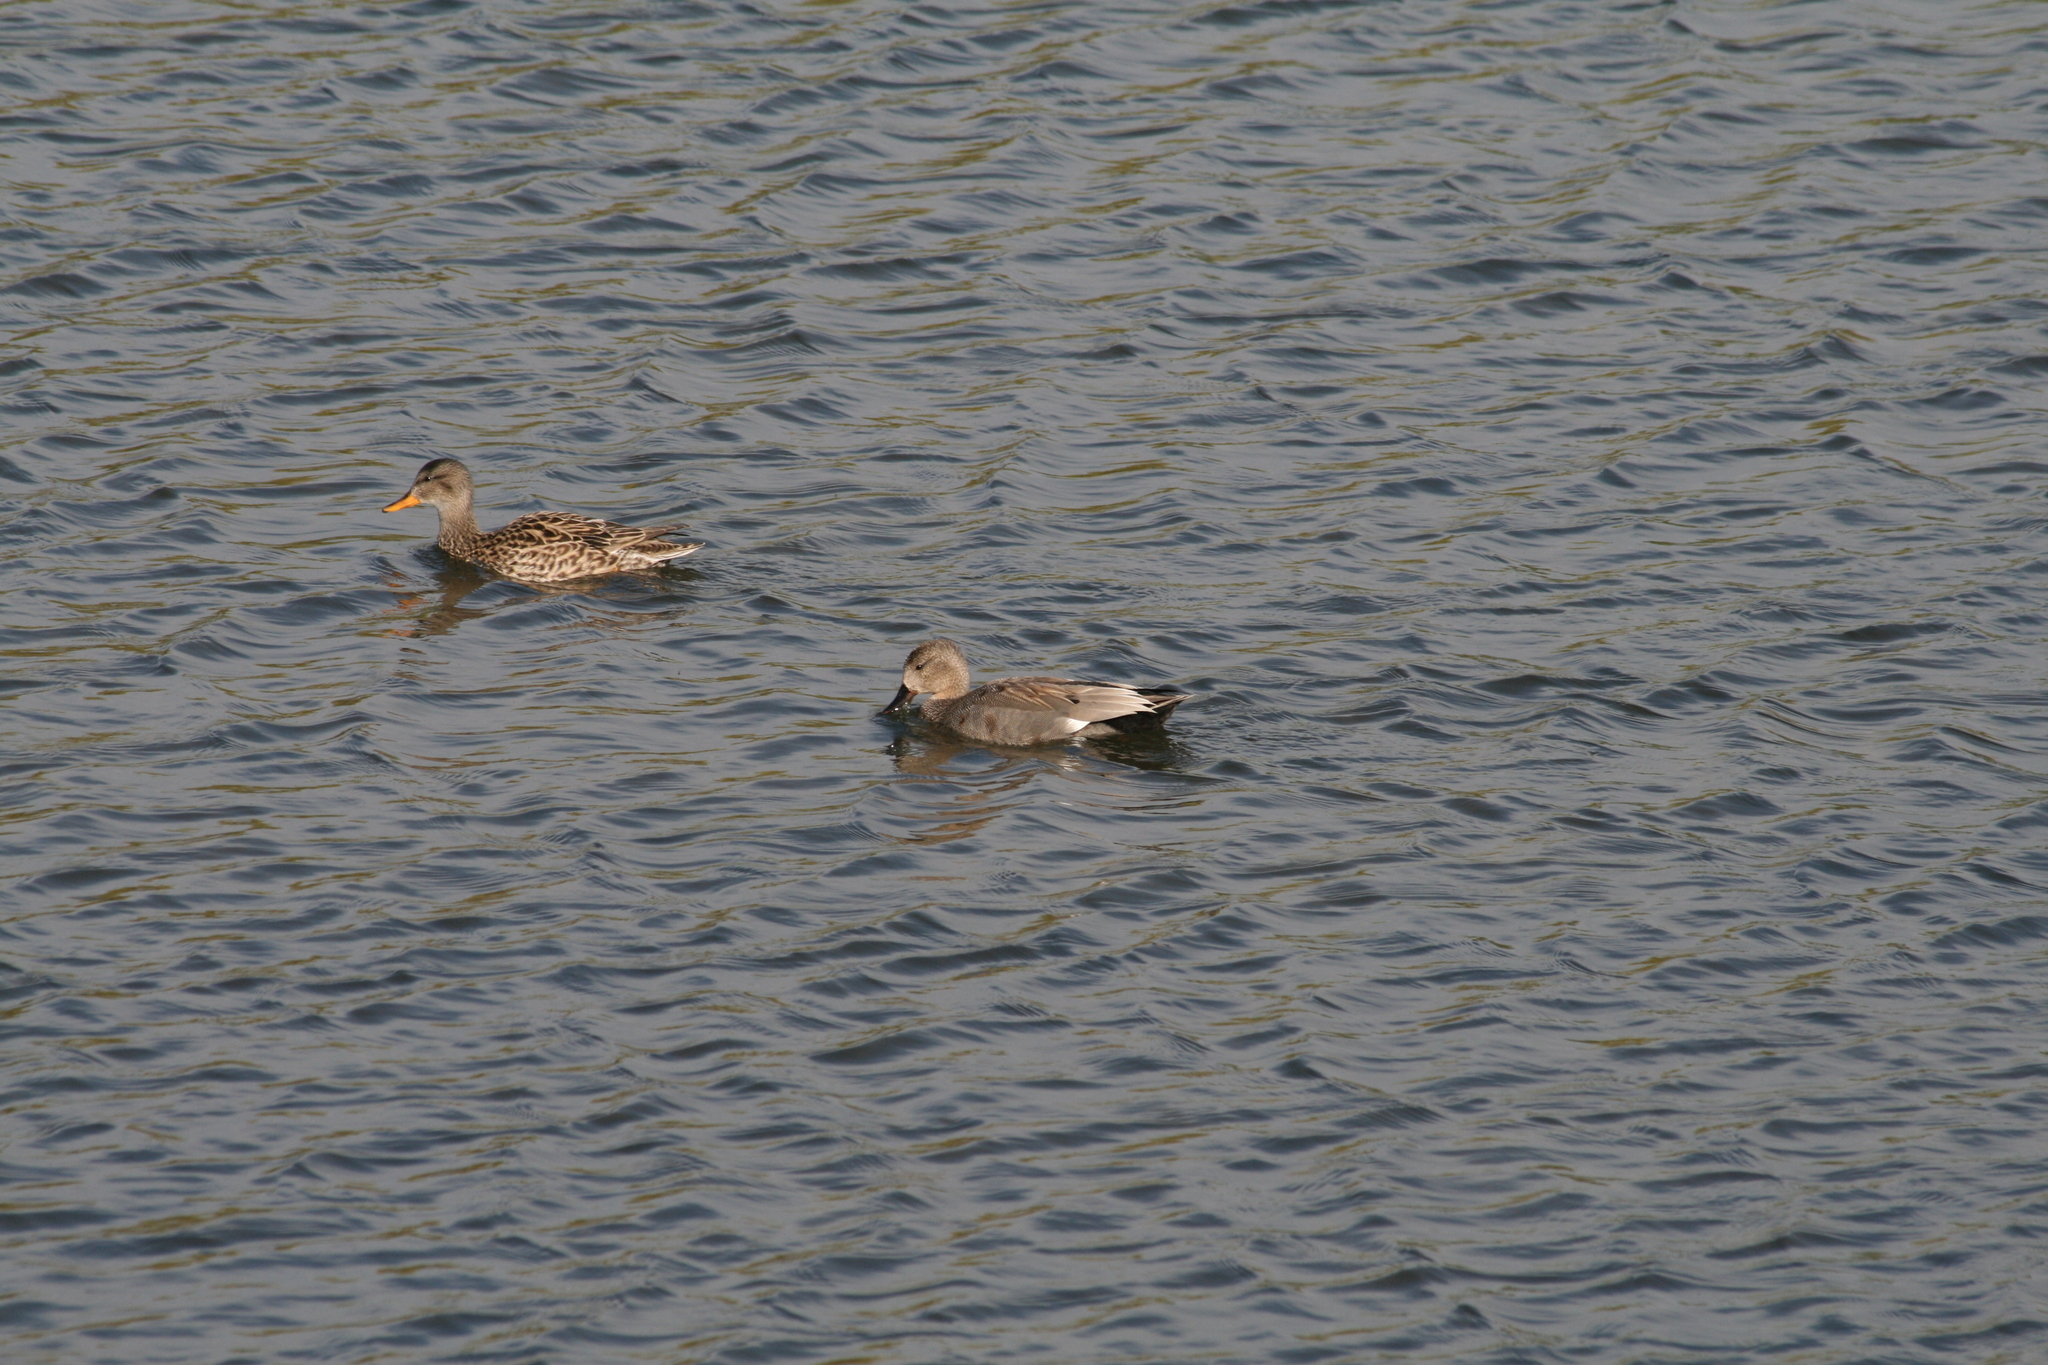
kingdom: Animalia
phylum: Chordata
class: Aves
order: Anseriformes
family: Anatidae
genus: Mareca
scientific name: Mareca strepera
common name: Gadwall
